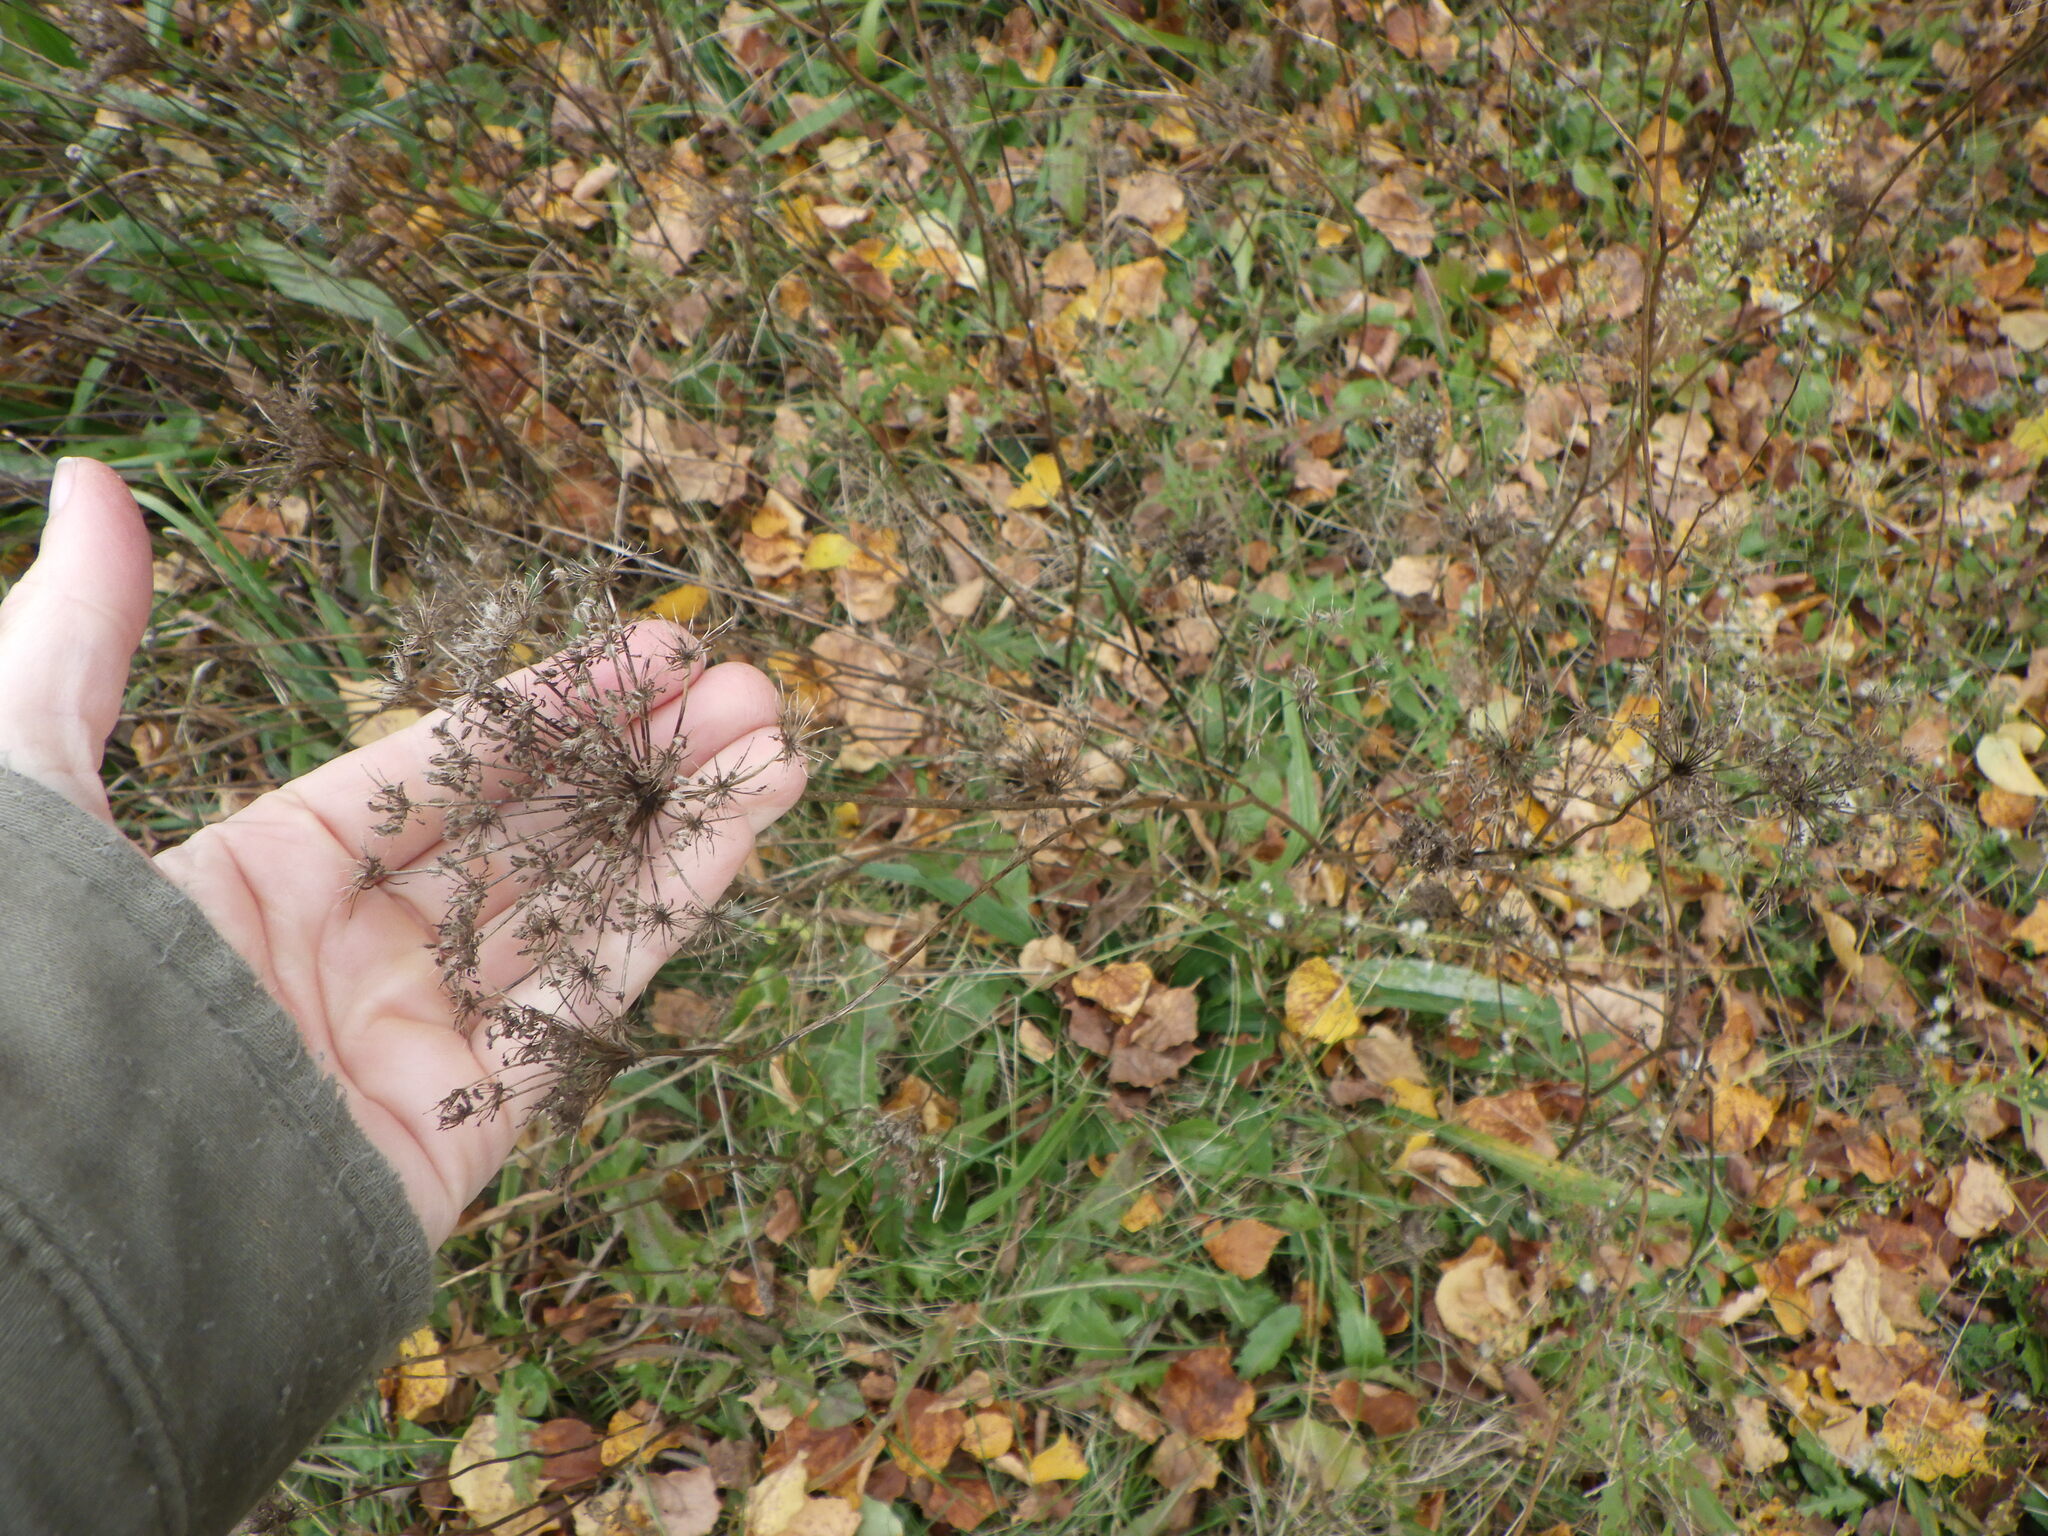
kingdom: Plantae
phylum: Tracheophyta
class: Magnoliopsida
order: Apiales
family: Apiaceae
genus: Daucus
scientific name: Daucus carota
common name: Wild carrot
